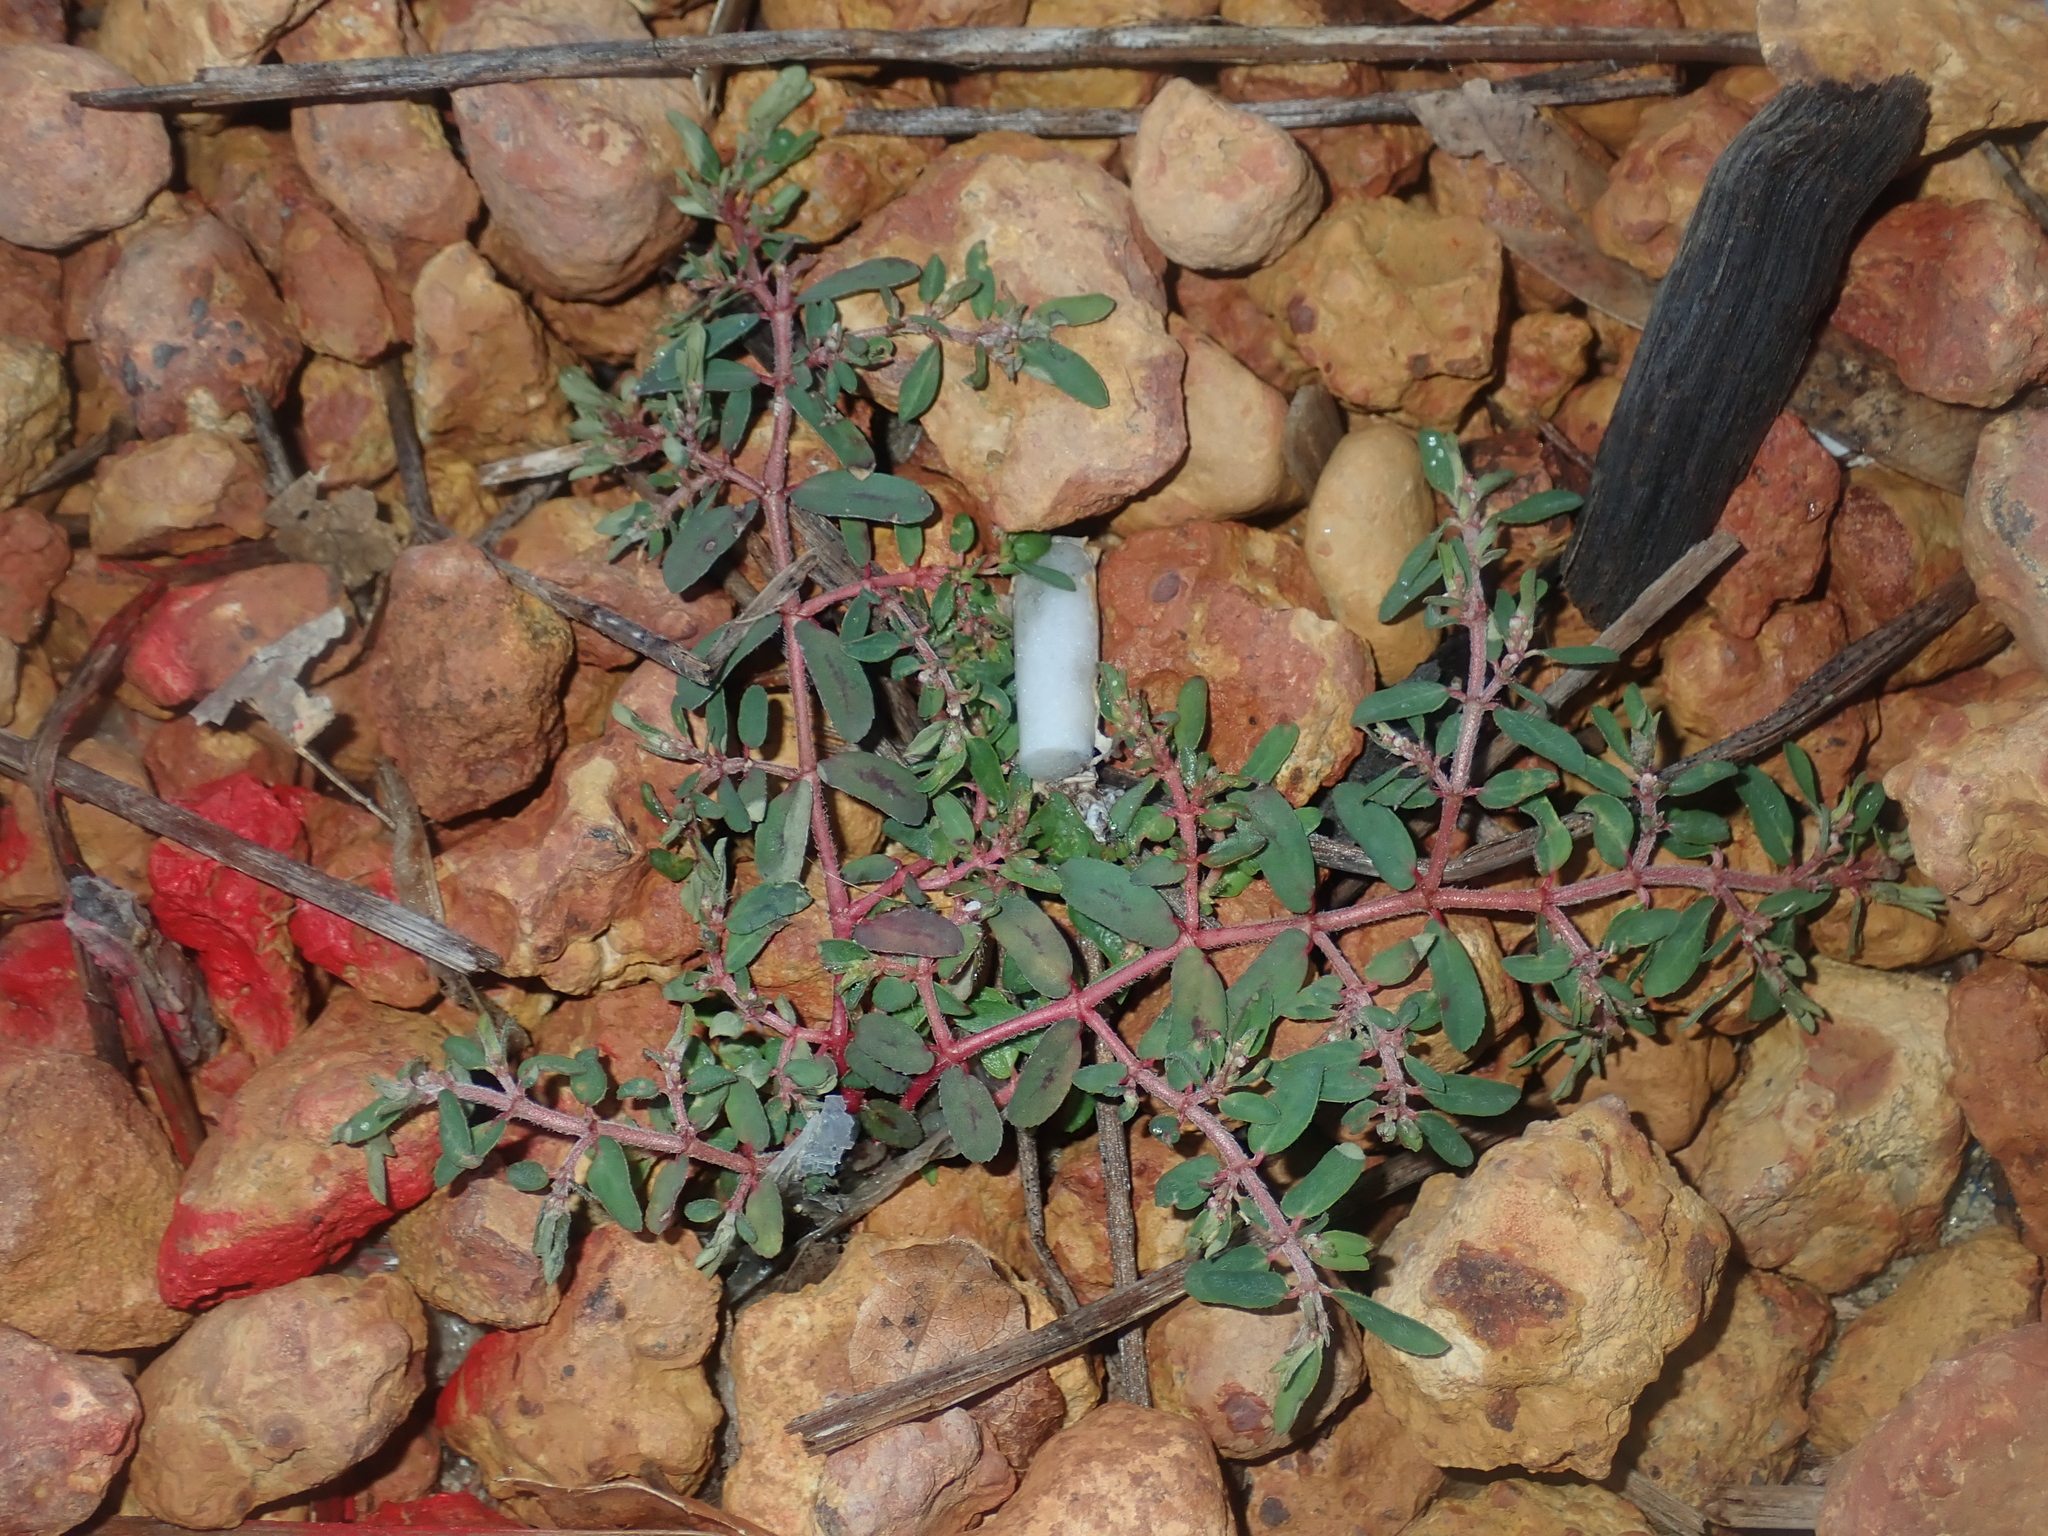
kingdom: Plantae
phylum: Tracheophyta
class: Magnoliopsida
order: Malpighiales
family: Euphorbiaceae
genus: Euphorbia
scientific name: Euphorbia maculata
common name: Spotted spurge
